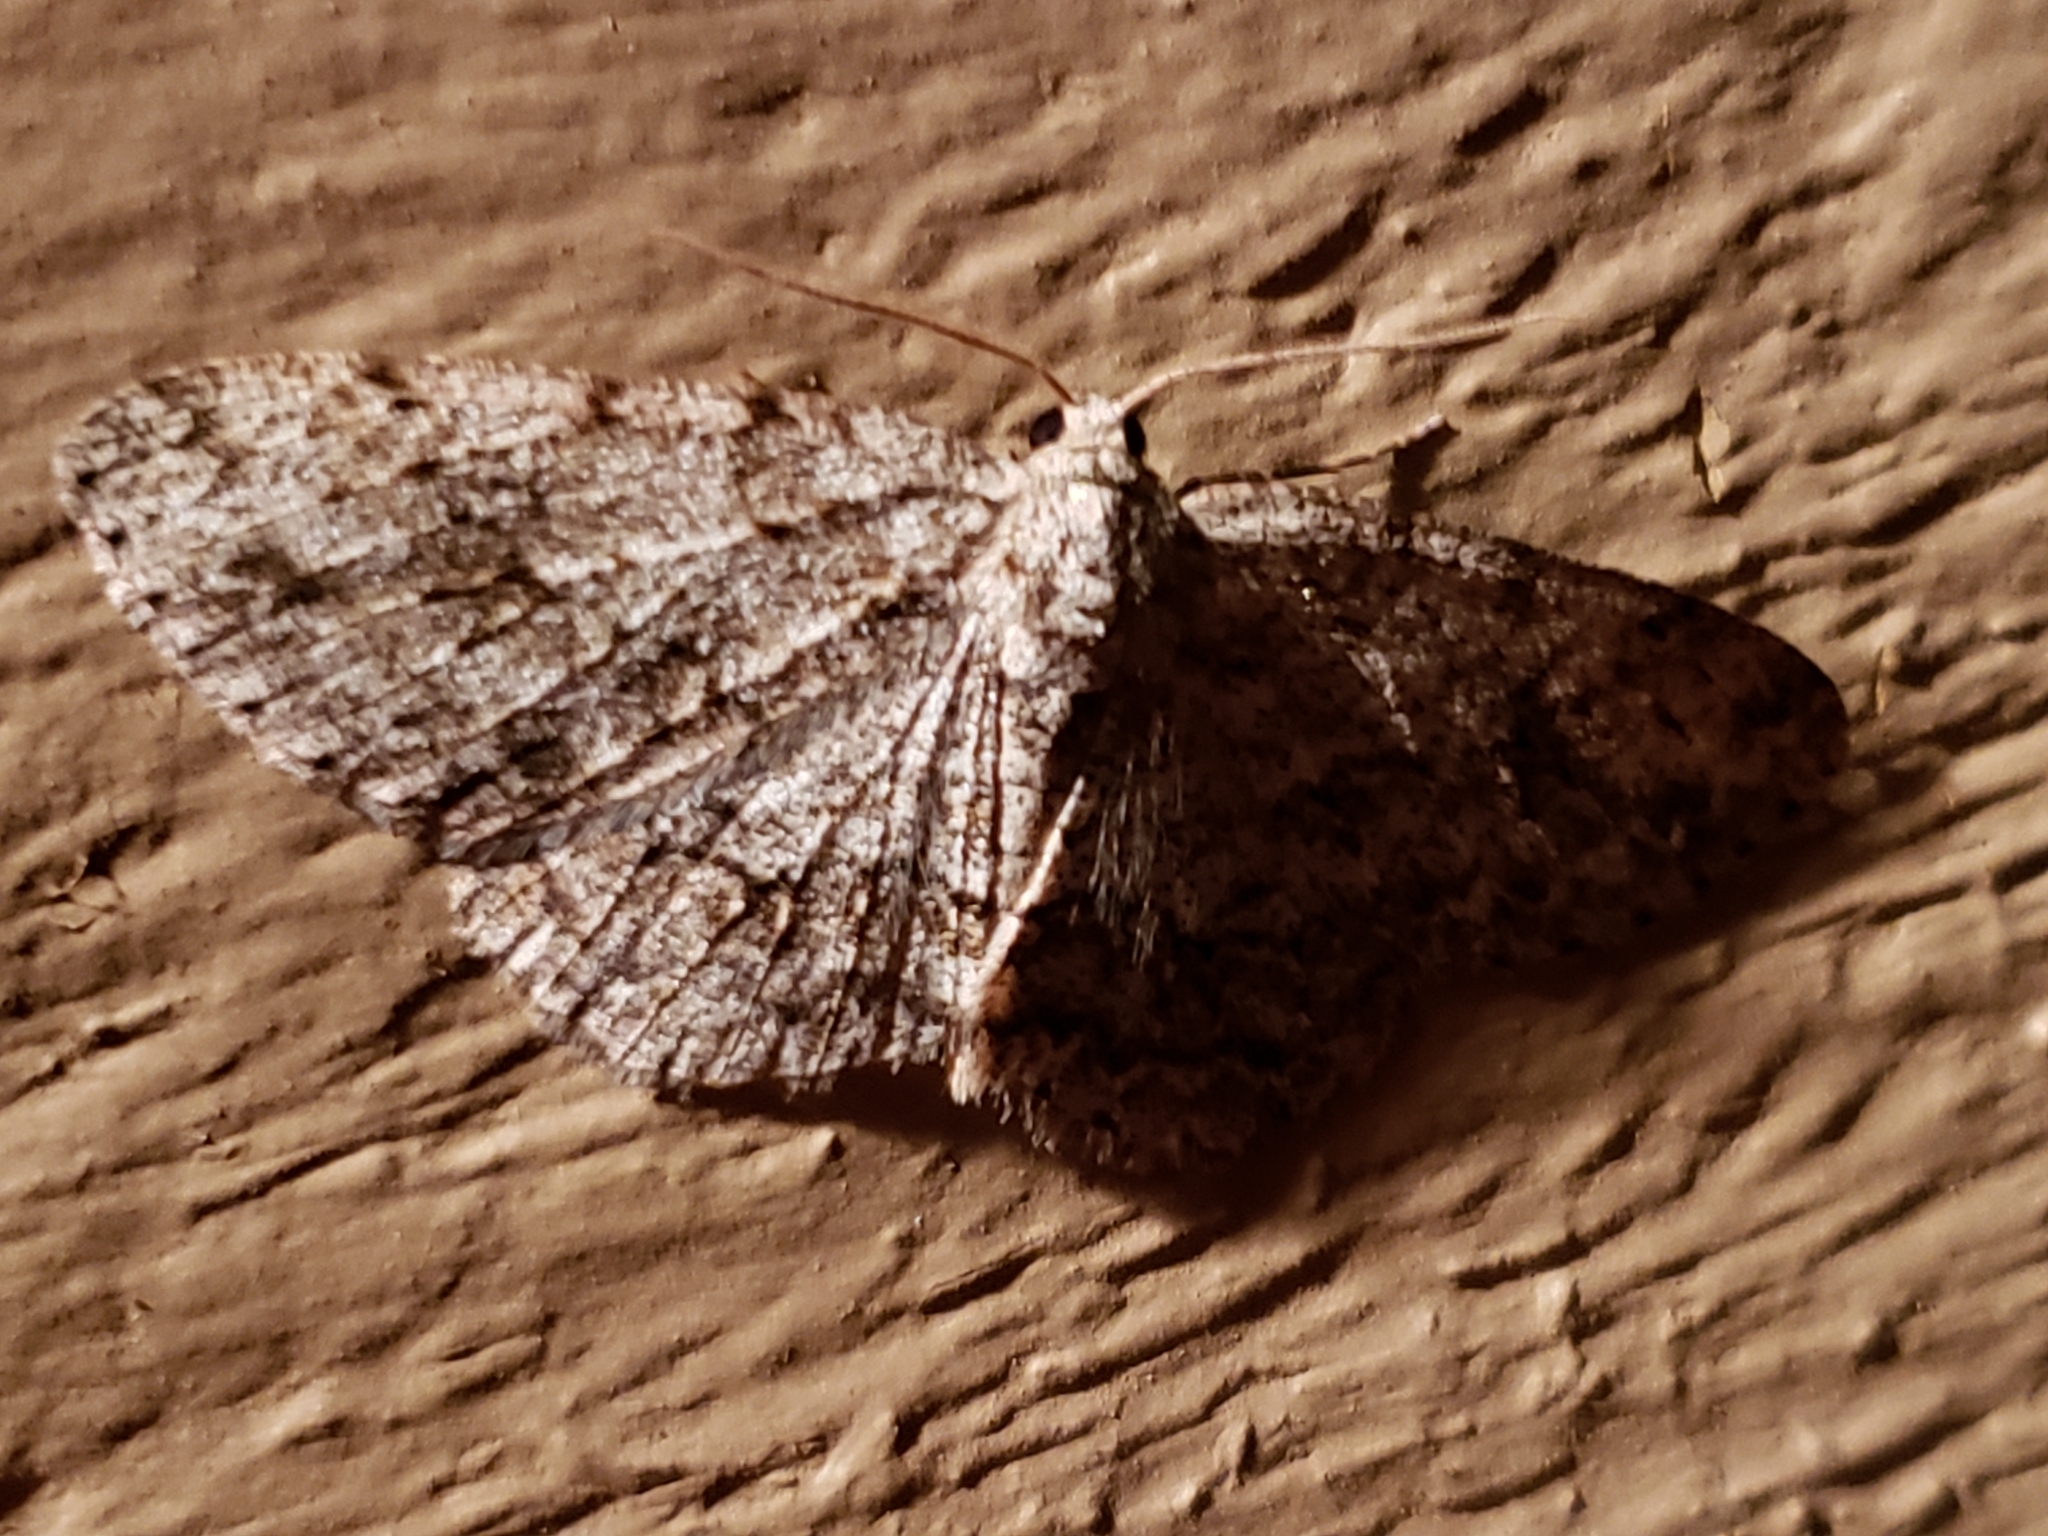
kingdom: Animalia
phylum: Arthropoda
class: Insecta
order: Lepidoptera
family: Geometridae
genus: Ectropis
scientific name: Ectropis crepuscularia
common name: Engrailed
